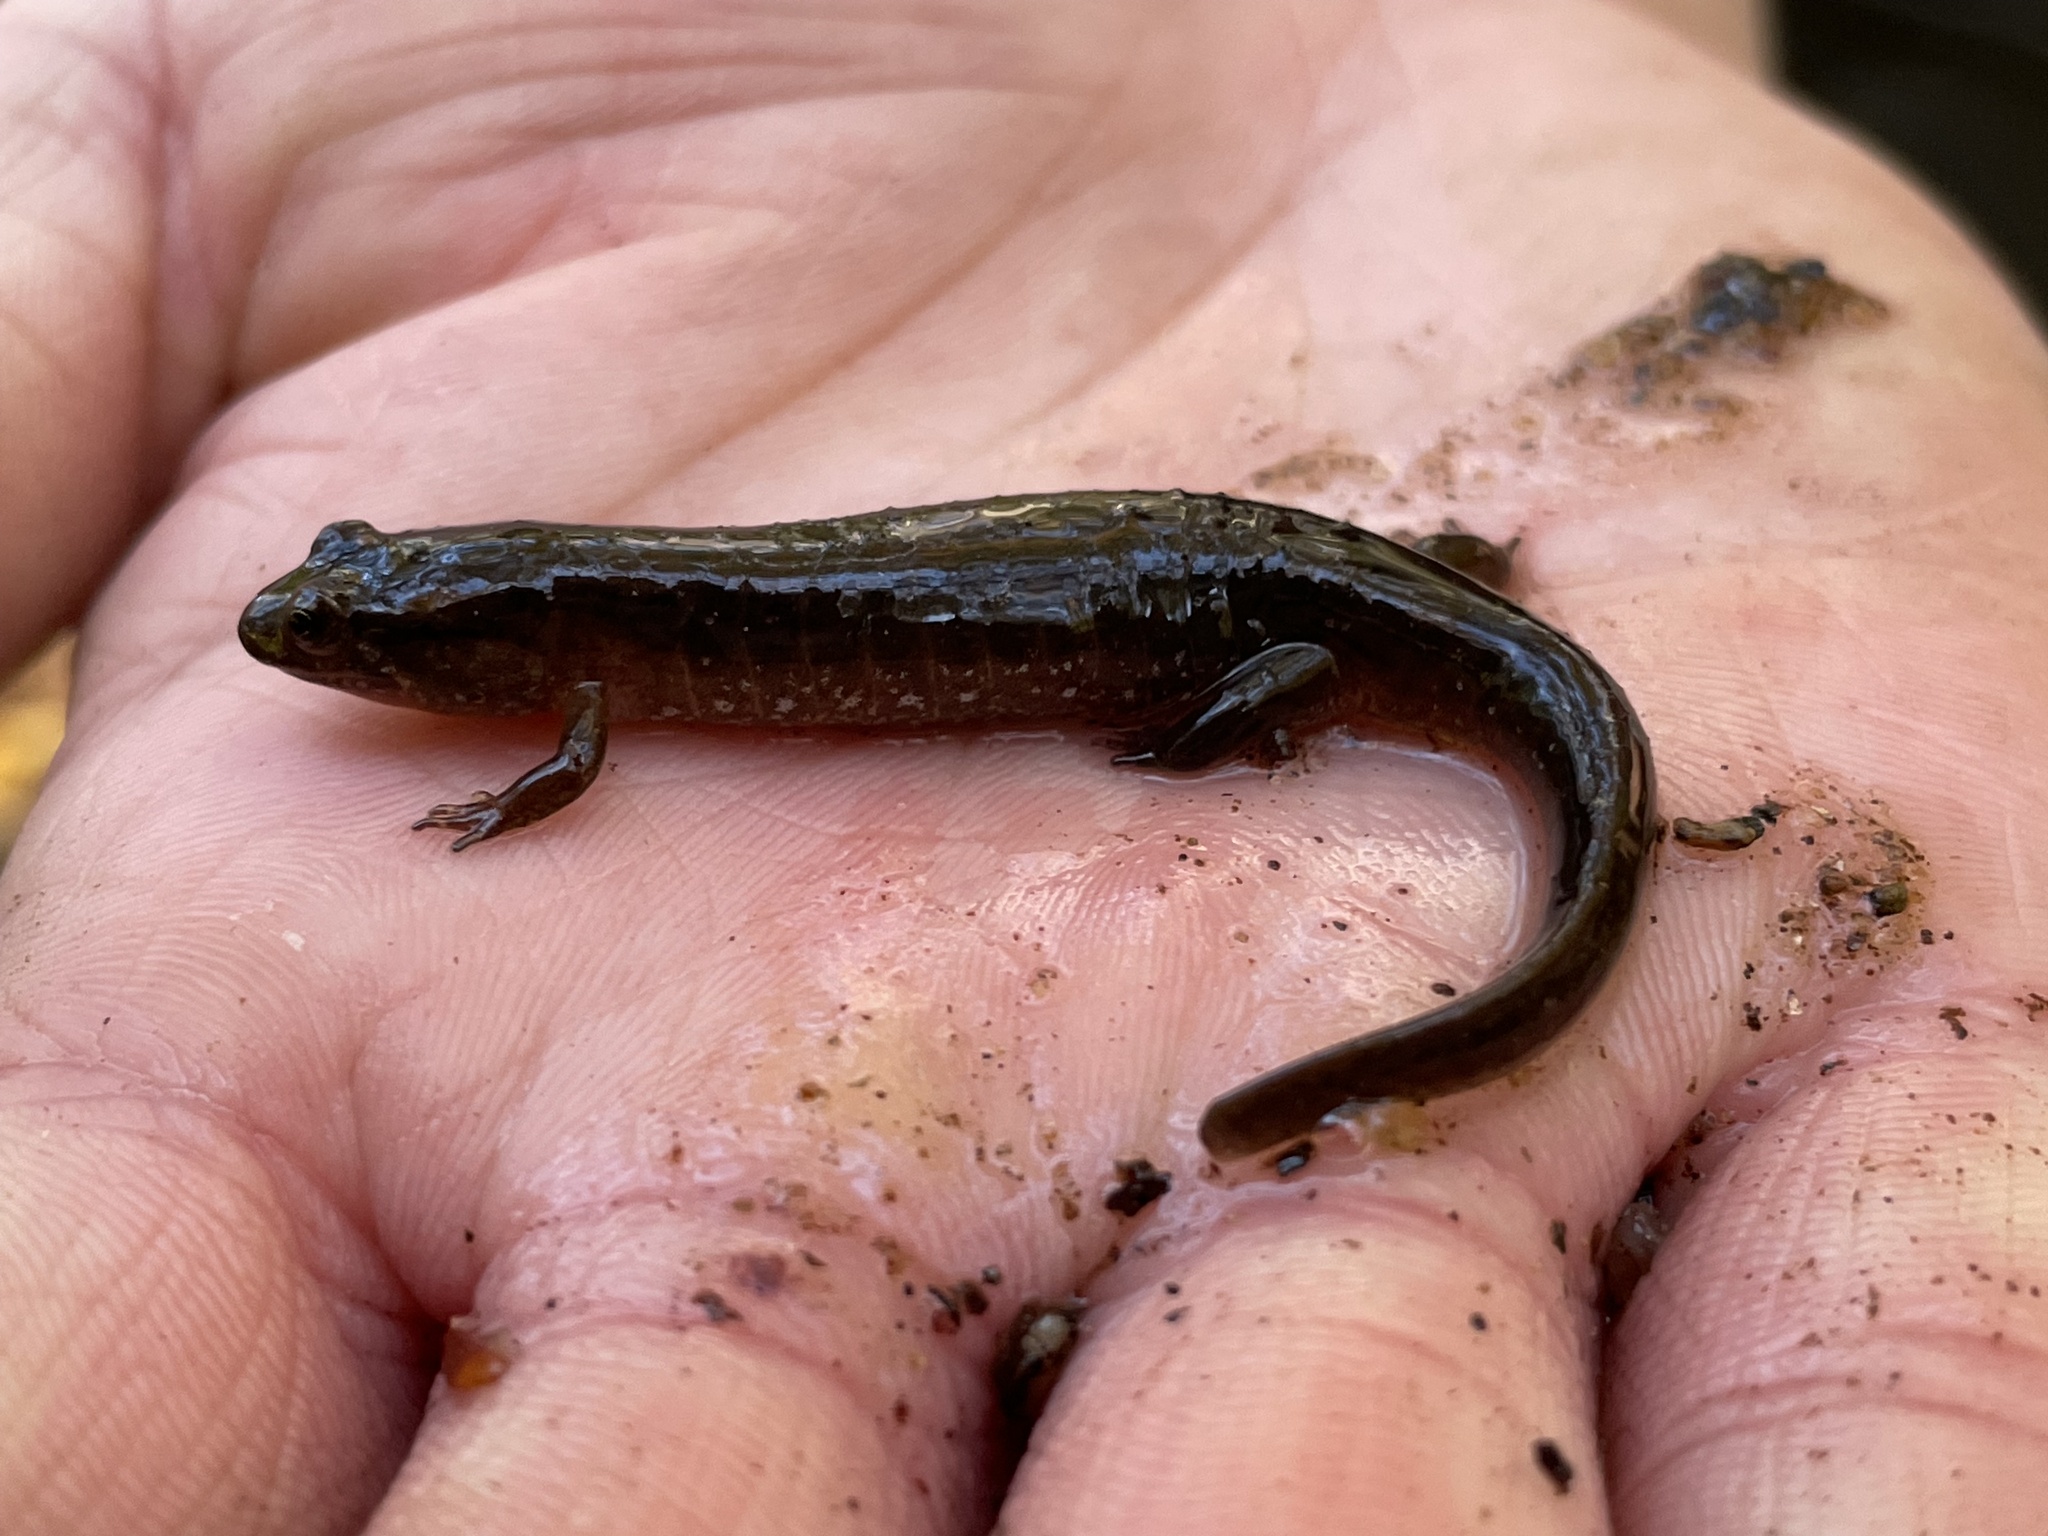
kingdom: Animalia
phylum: Chordata
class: Amphibia
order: Caudata
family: Plethodontidae
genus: Desmognathus
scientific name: Desmognathus fuscus
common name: Northern dusky salamander
